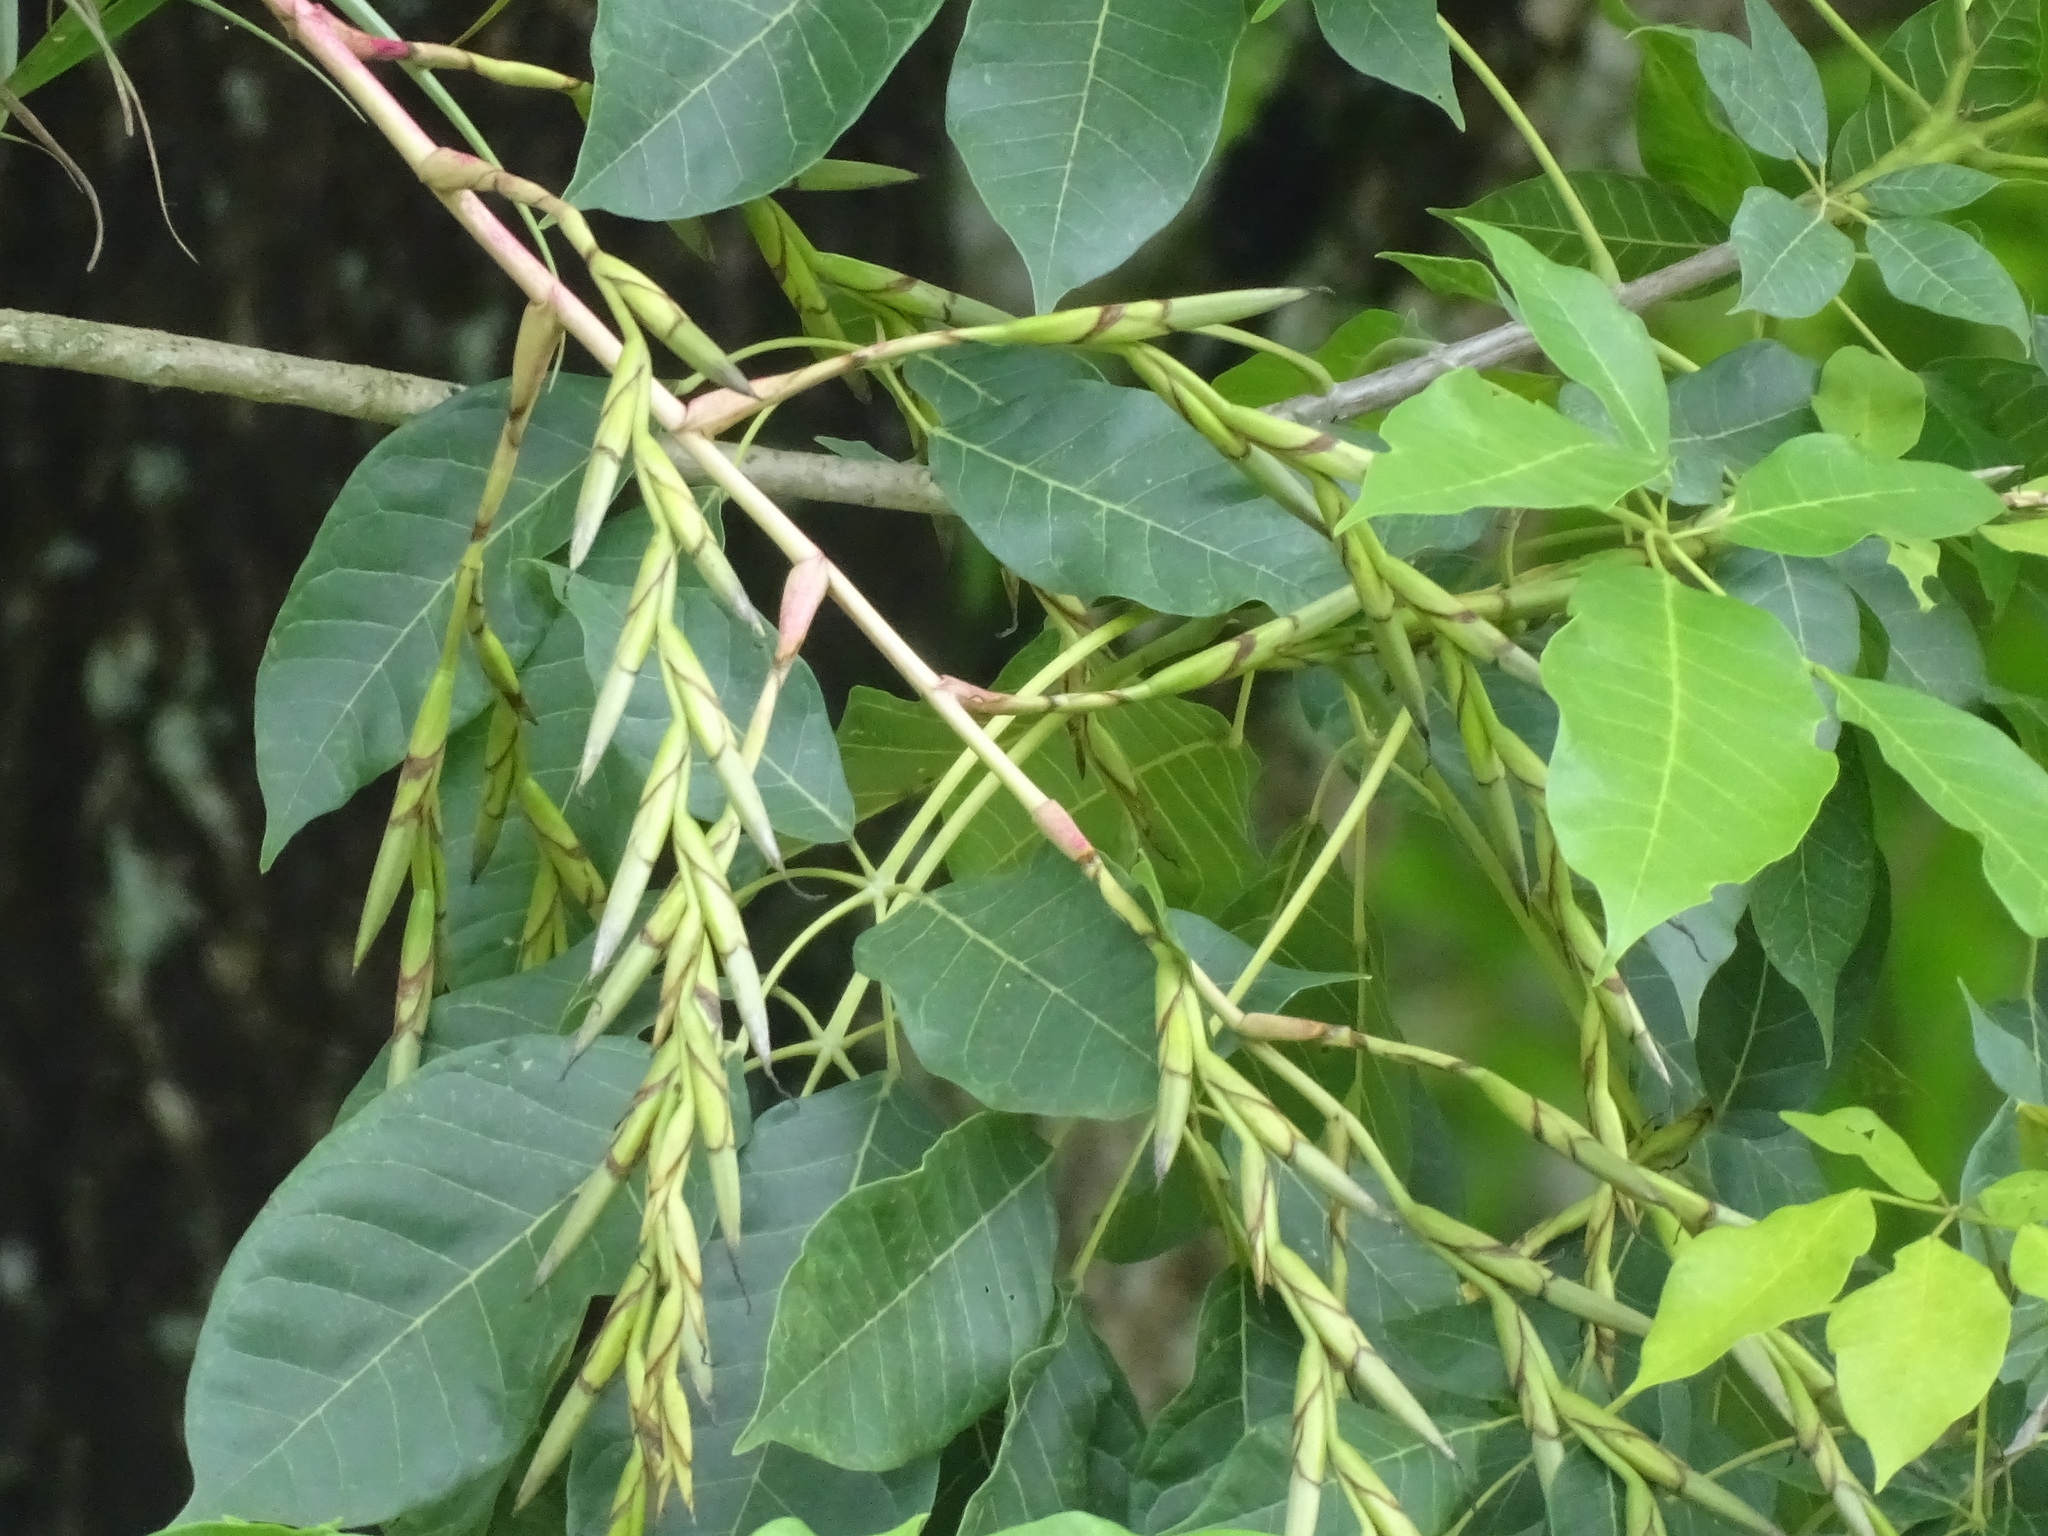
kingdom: Plantae
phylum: Tracheophyta
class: Liliopsida
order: Poales
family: Bromeliaceae
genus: Tillandsia
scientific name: Tillandsia dasyliriifolia
